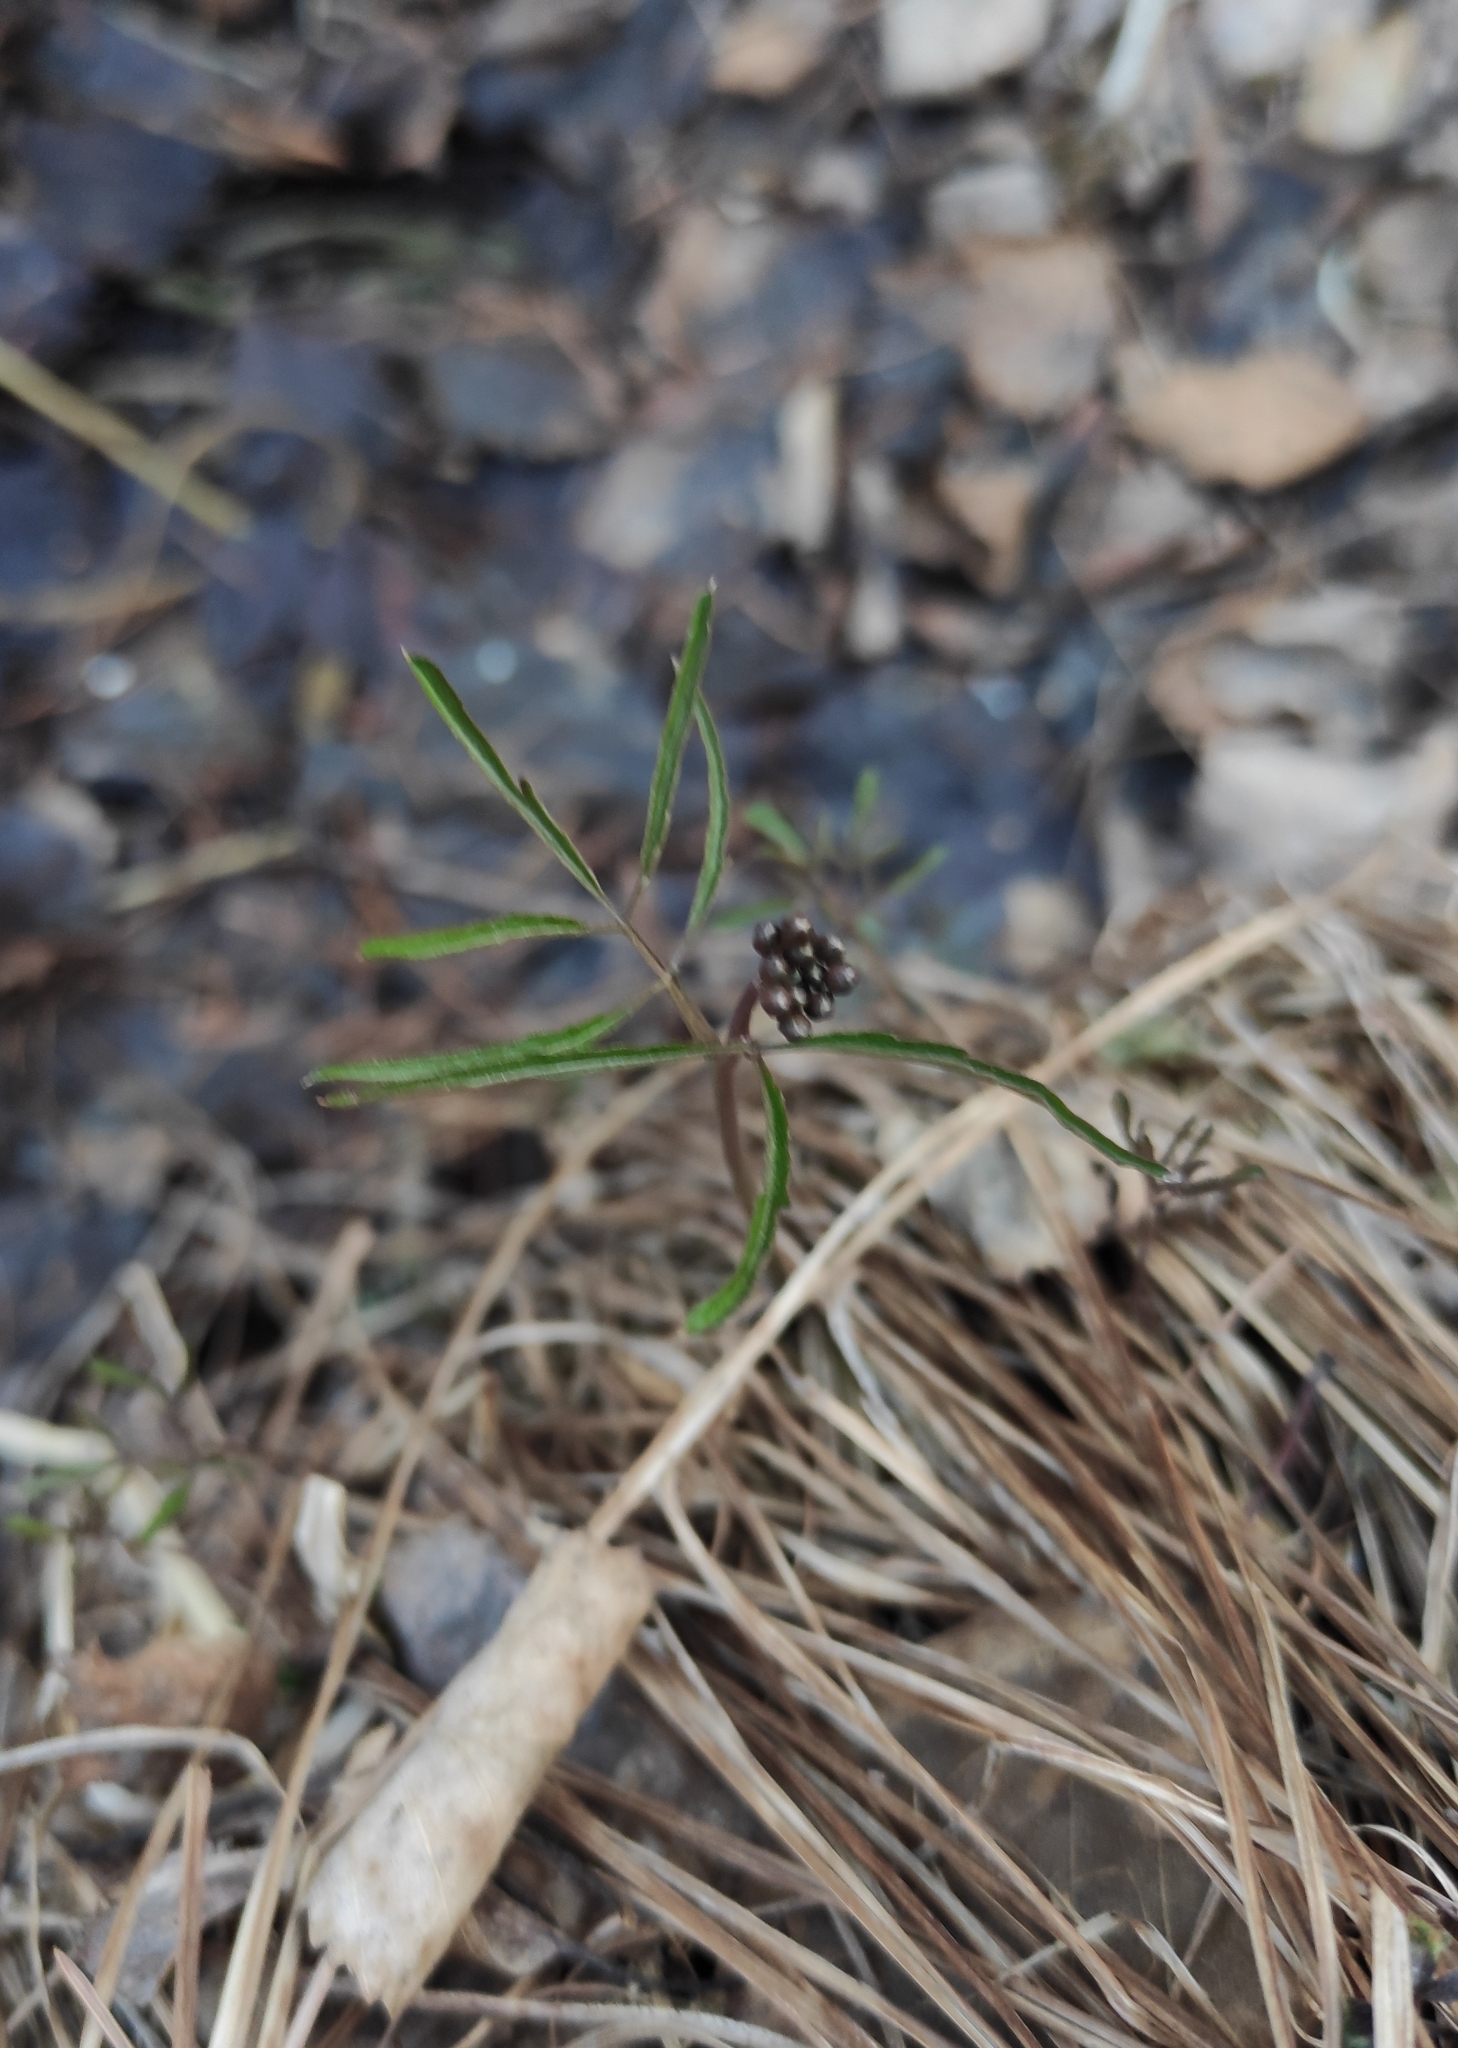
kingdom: Plantae
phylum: Tracheophyta
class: Magnoliopsida
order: Brassicales
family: Brassicaceae
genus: Cardamine
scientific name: Cardamine trifida
